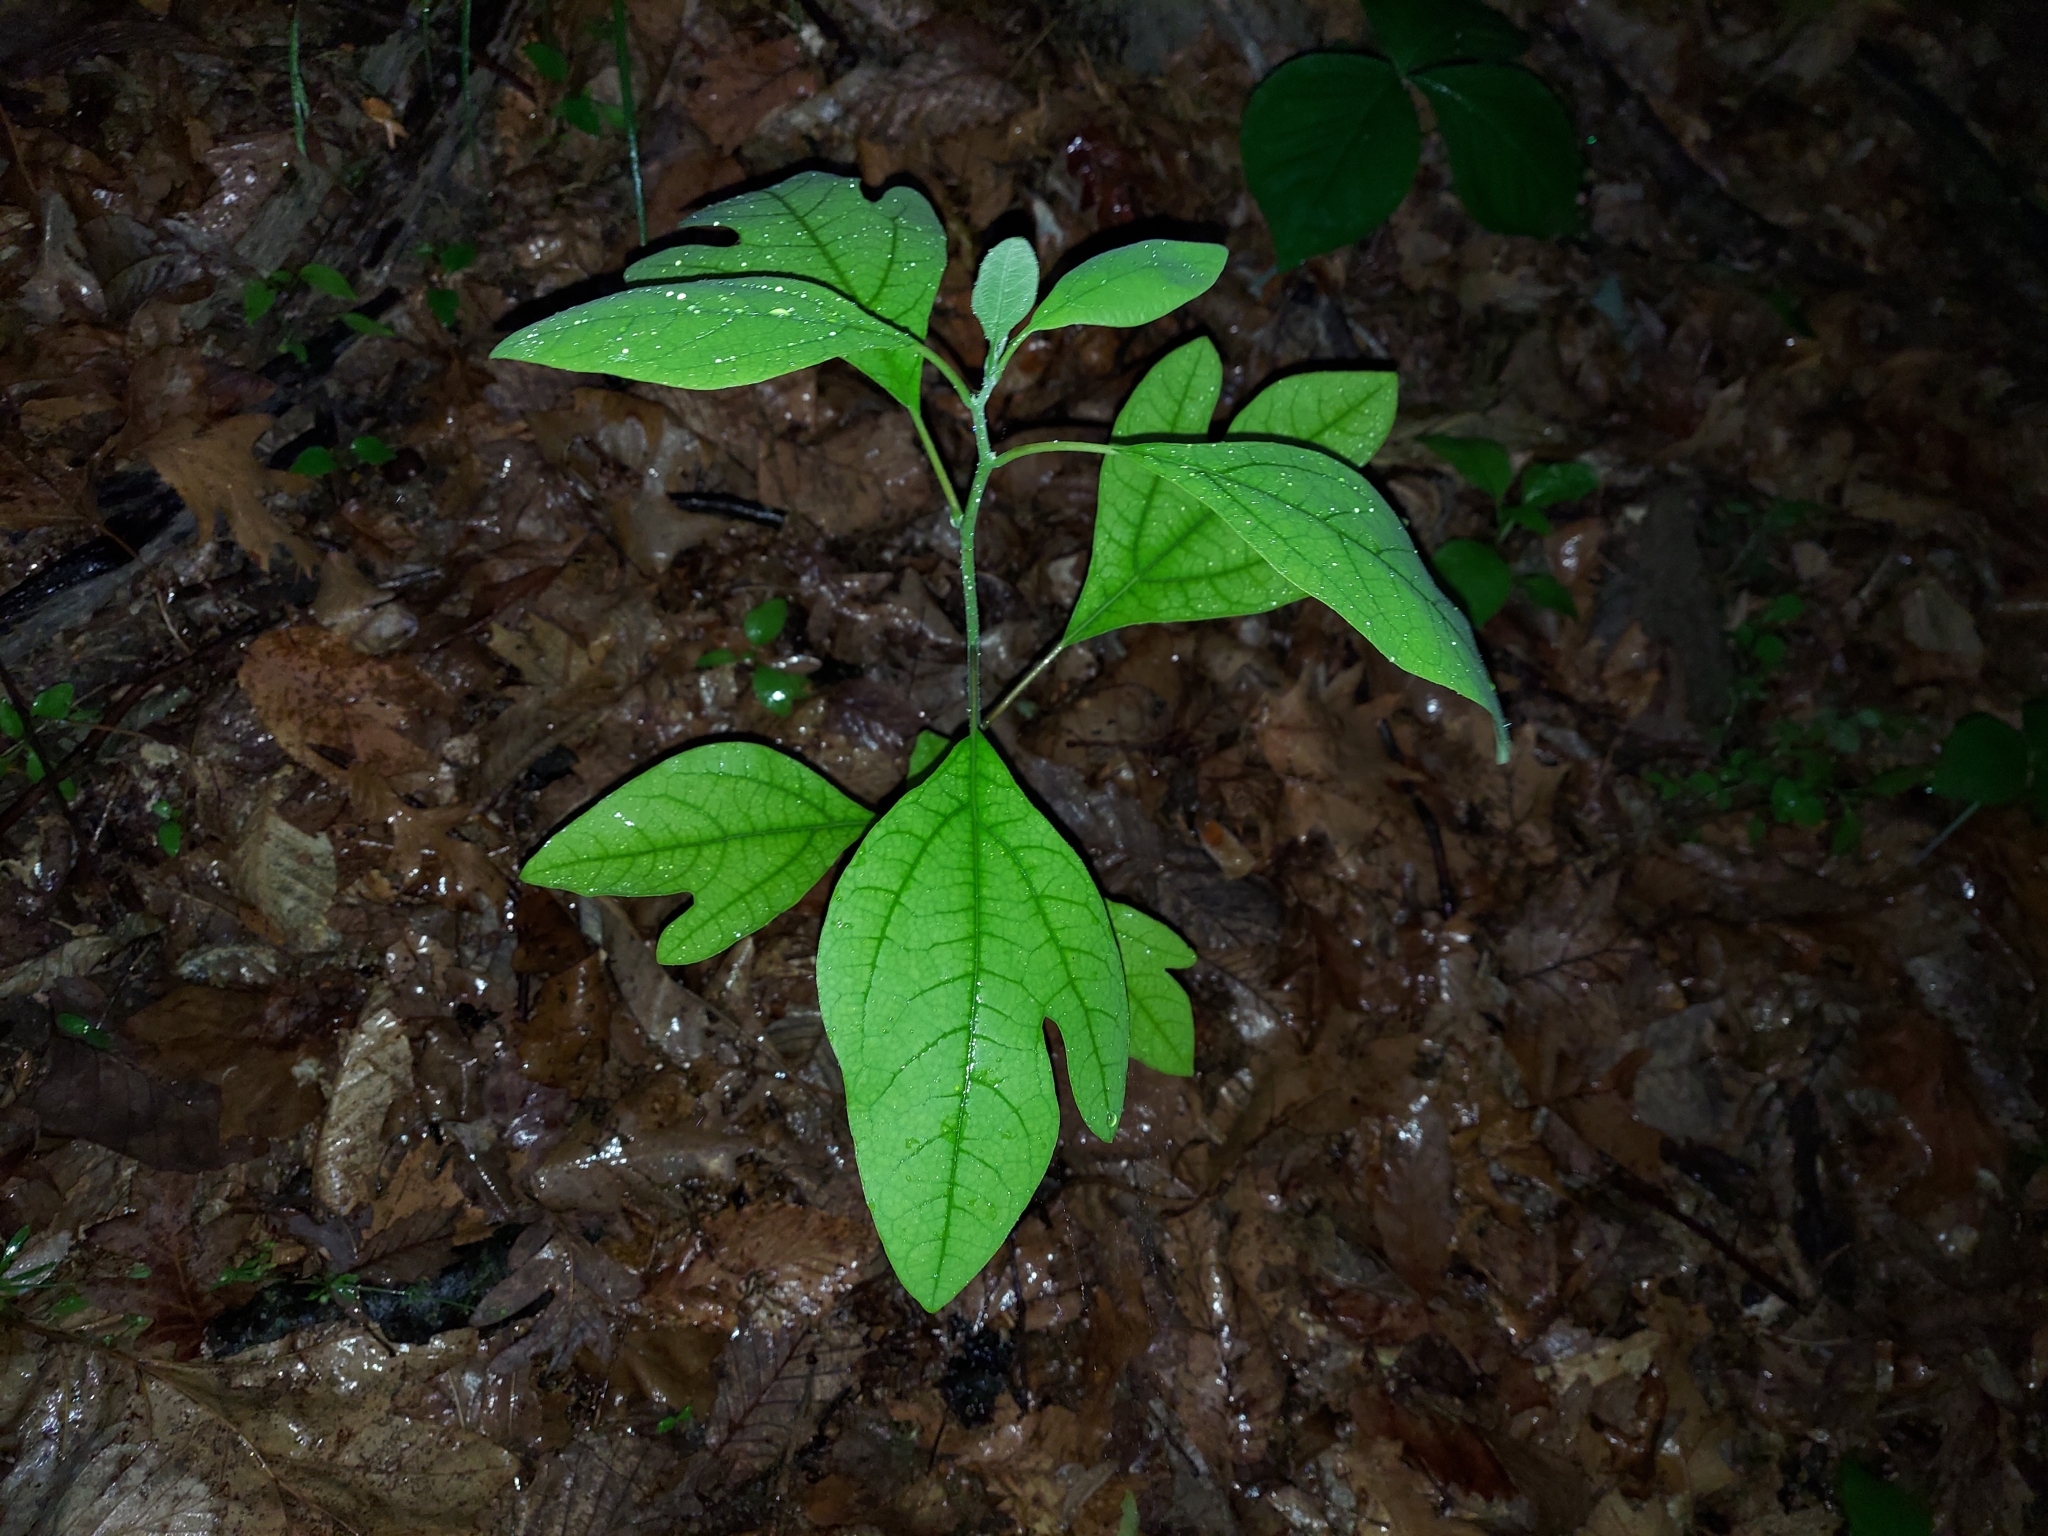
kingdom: Plantae
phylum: Tracheophyta
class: Magnoliopsida
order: Laurales
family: Lauraceae
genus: Sassafras
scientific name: Sassafras albidum
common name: Sassafras
